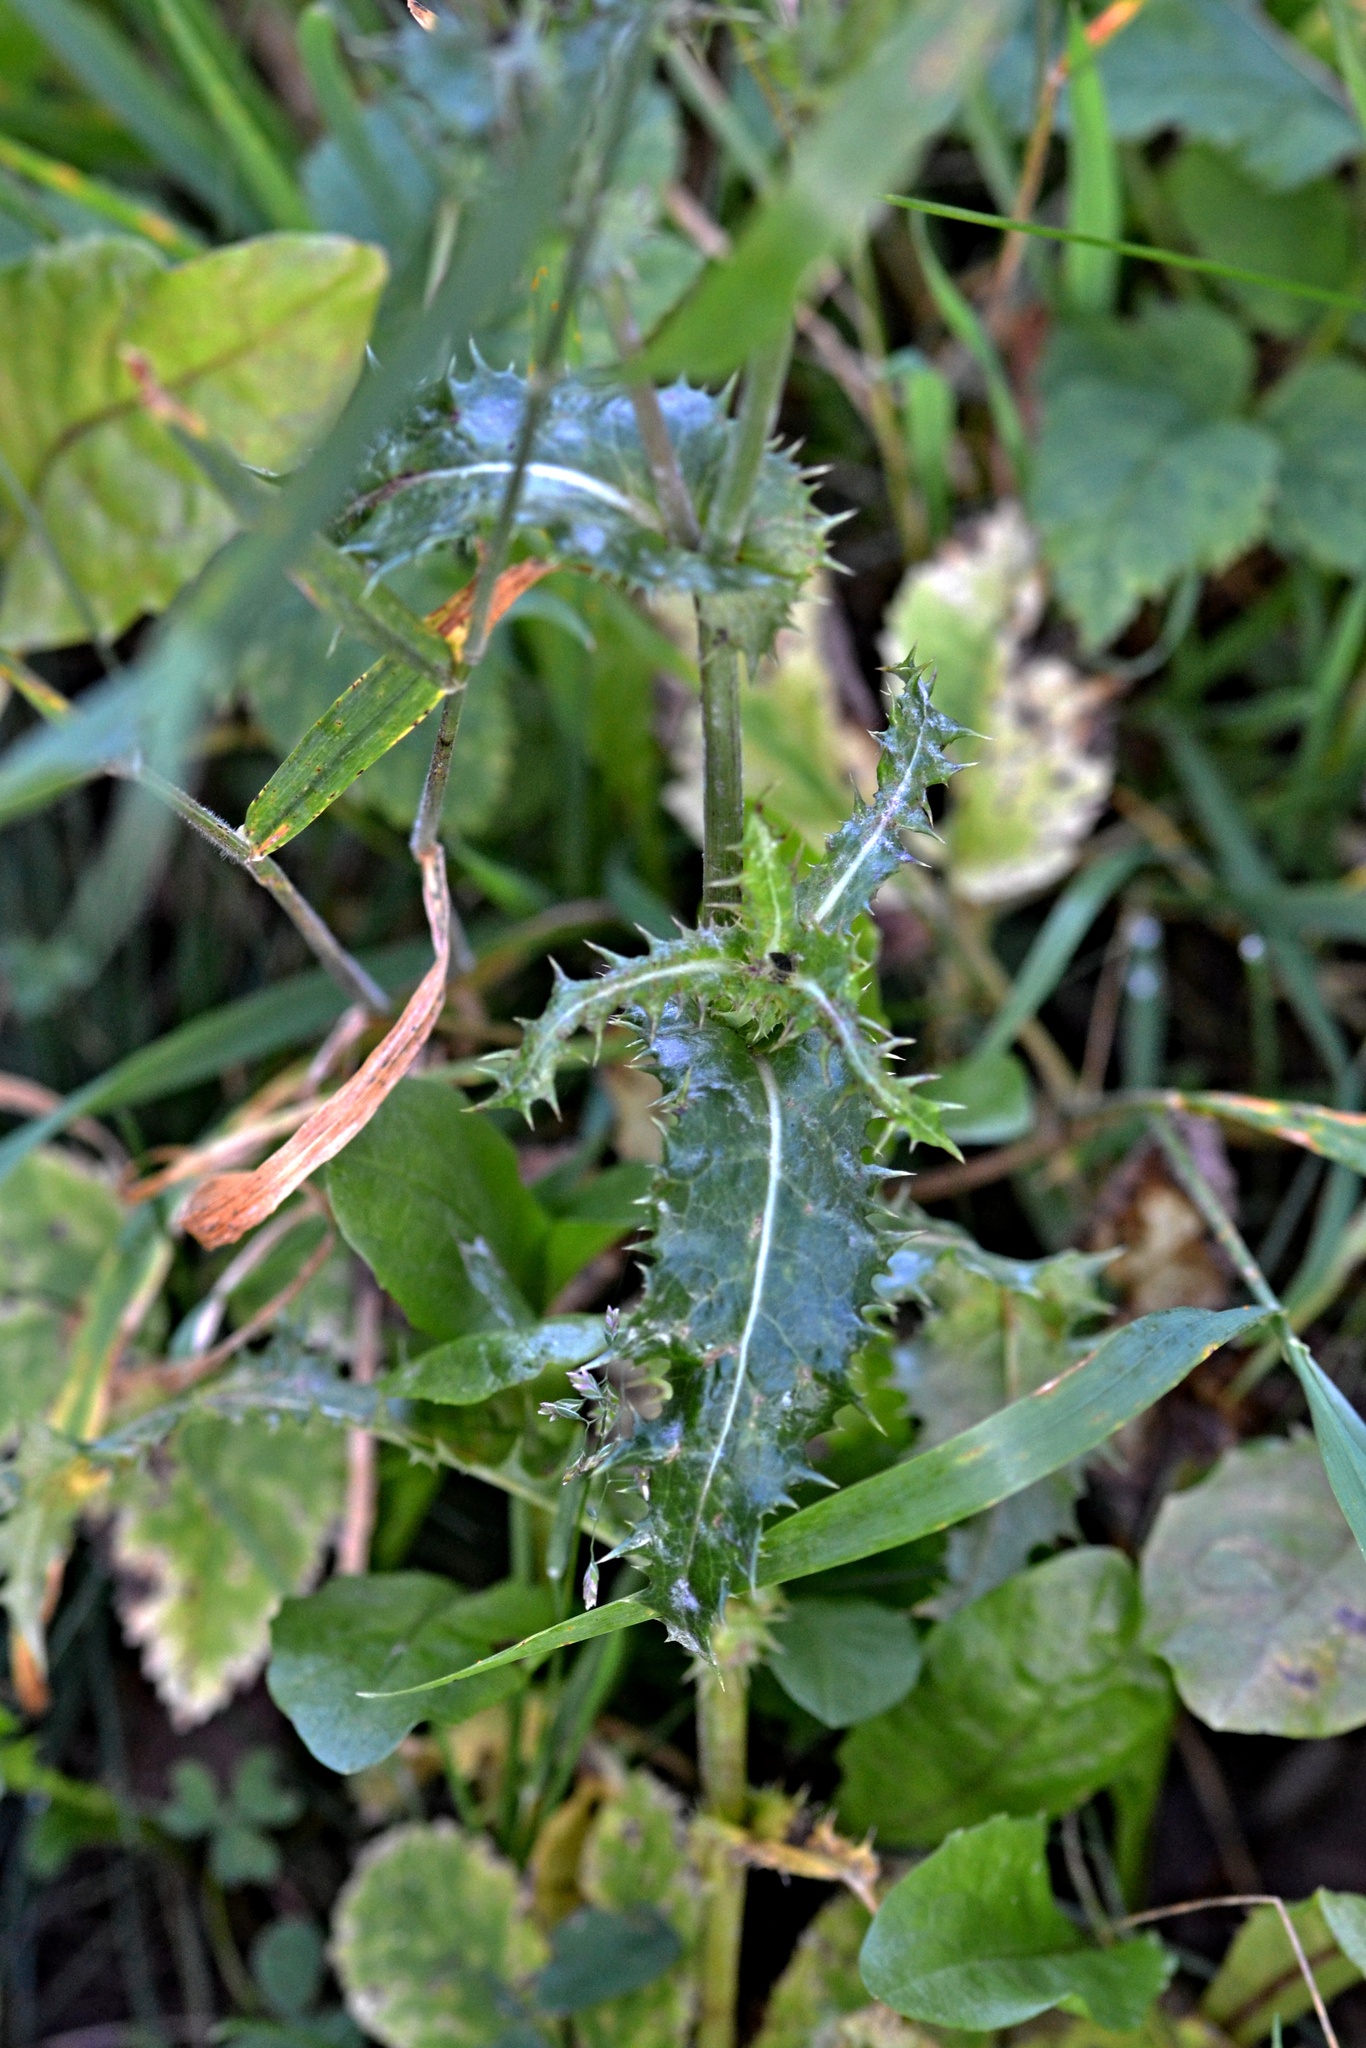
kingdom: Plantae
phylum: Tracheophyta
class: Magnoliopsida
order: Asterales
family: Asteraceae
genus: Sonchus
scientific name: Sonchus asper
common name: Prickly sow-thistle
